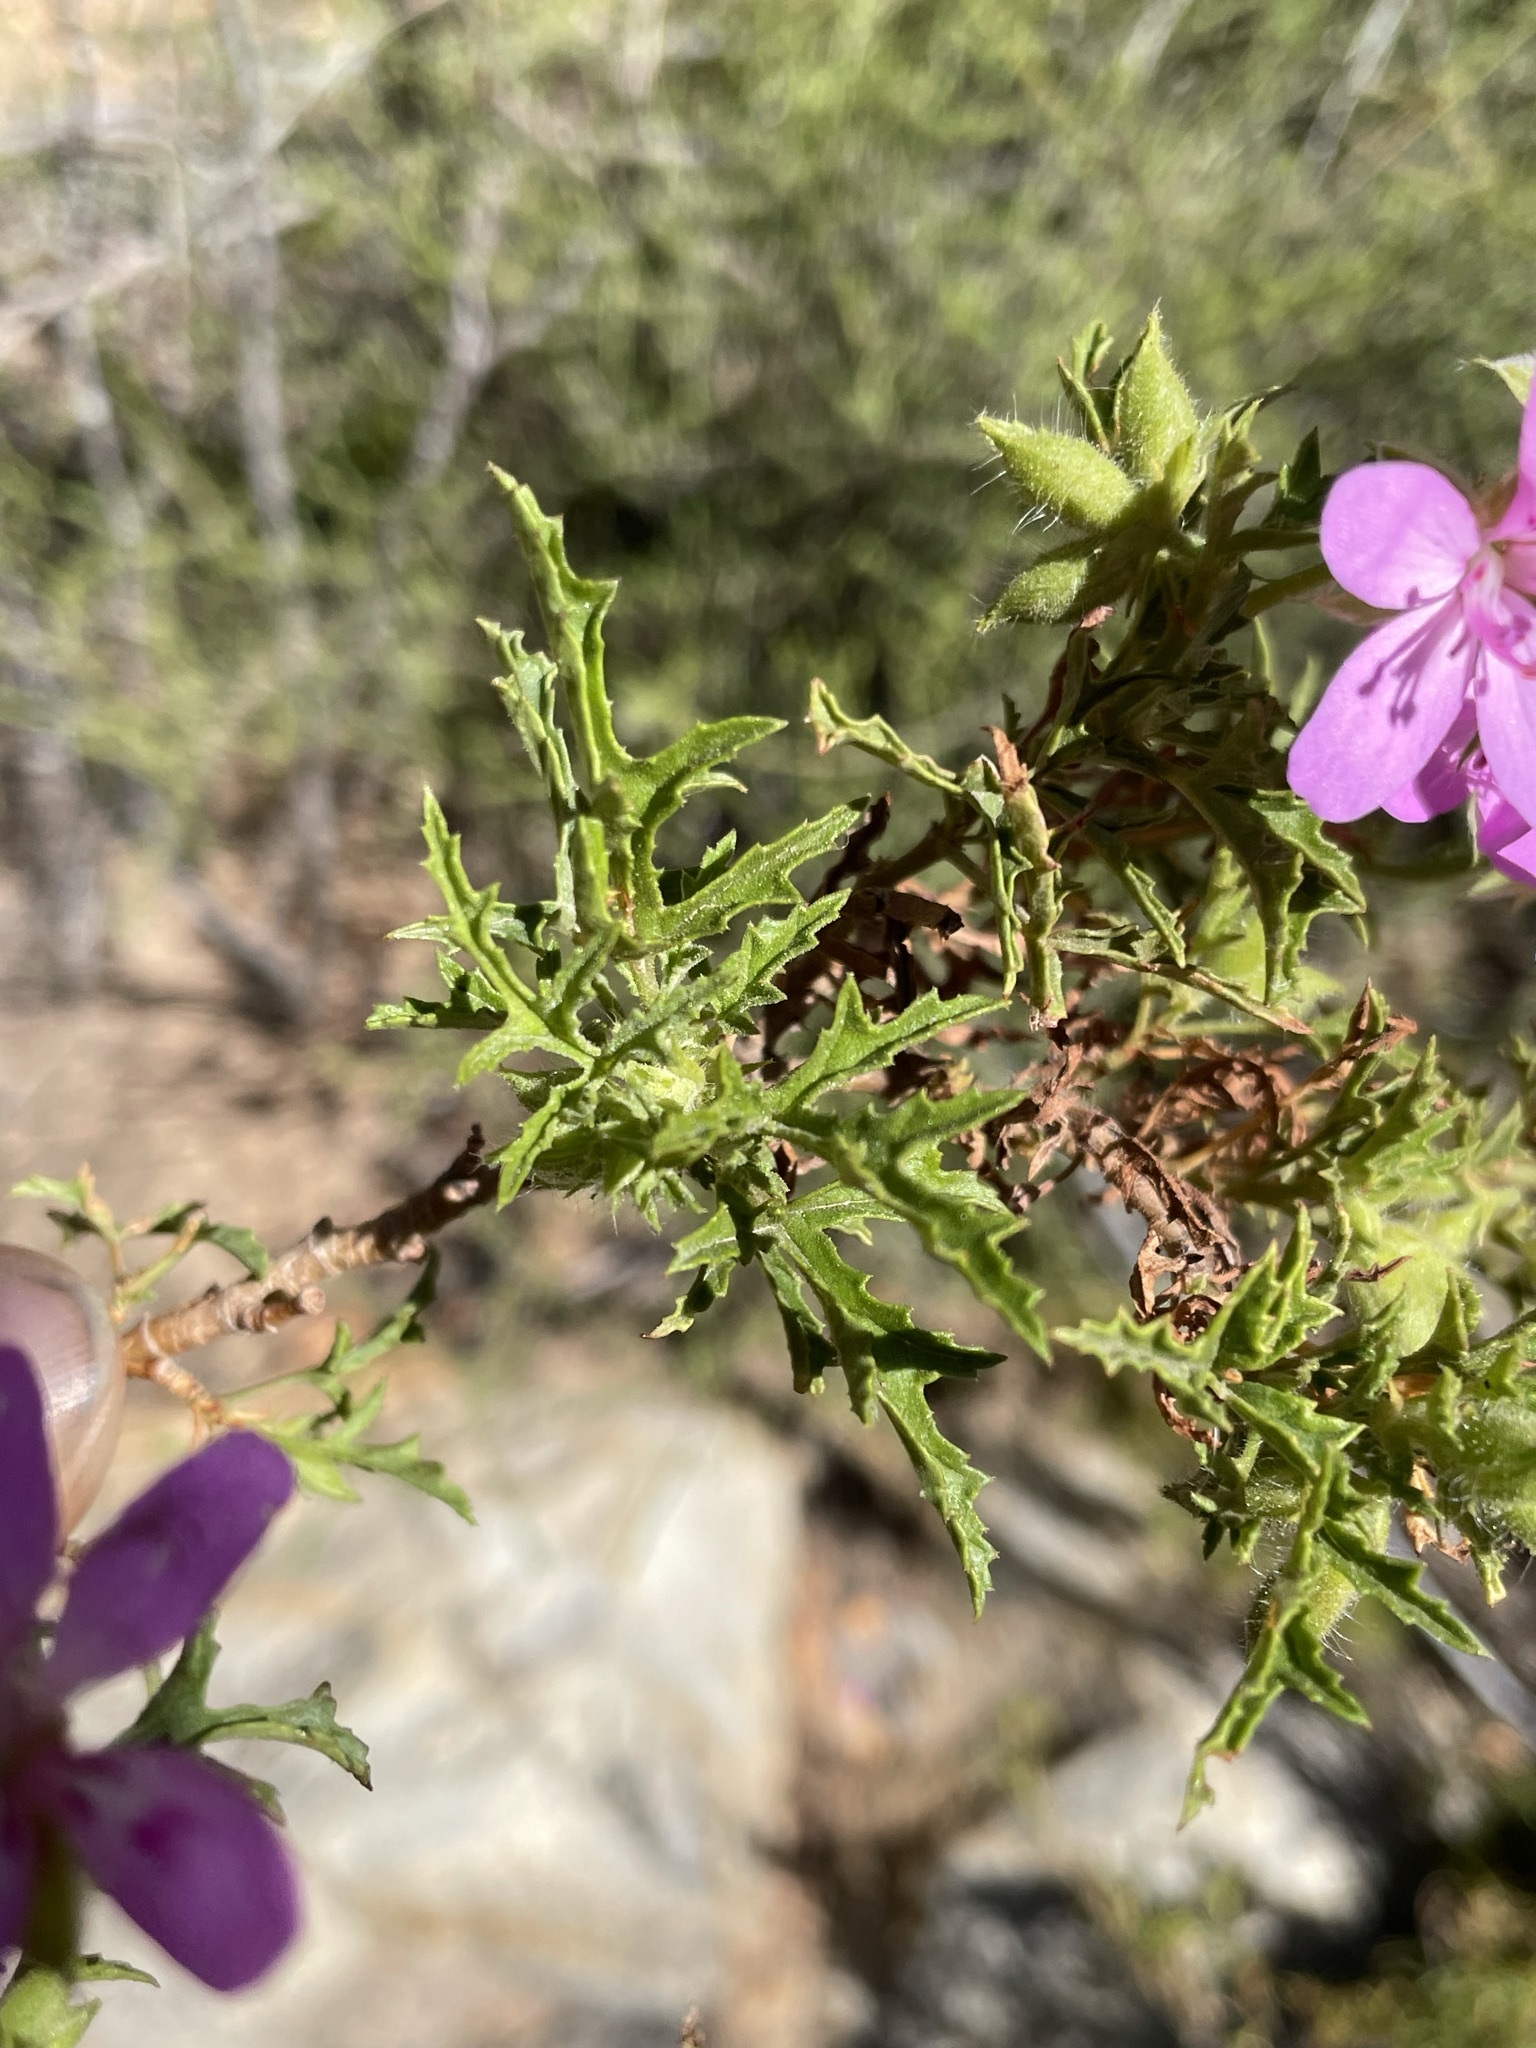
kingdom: Plantae
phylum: Tracheophyta
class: Magnoliopsida
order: Geraniales
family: Geraniaceae
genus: Pelargonium
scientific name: Pelargonium glutinosum
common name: Pheasant-foot geranium
